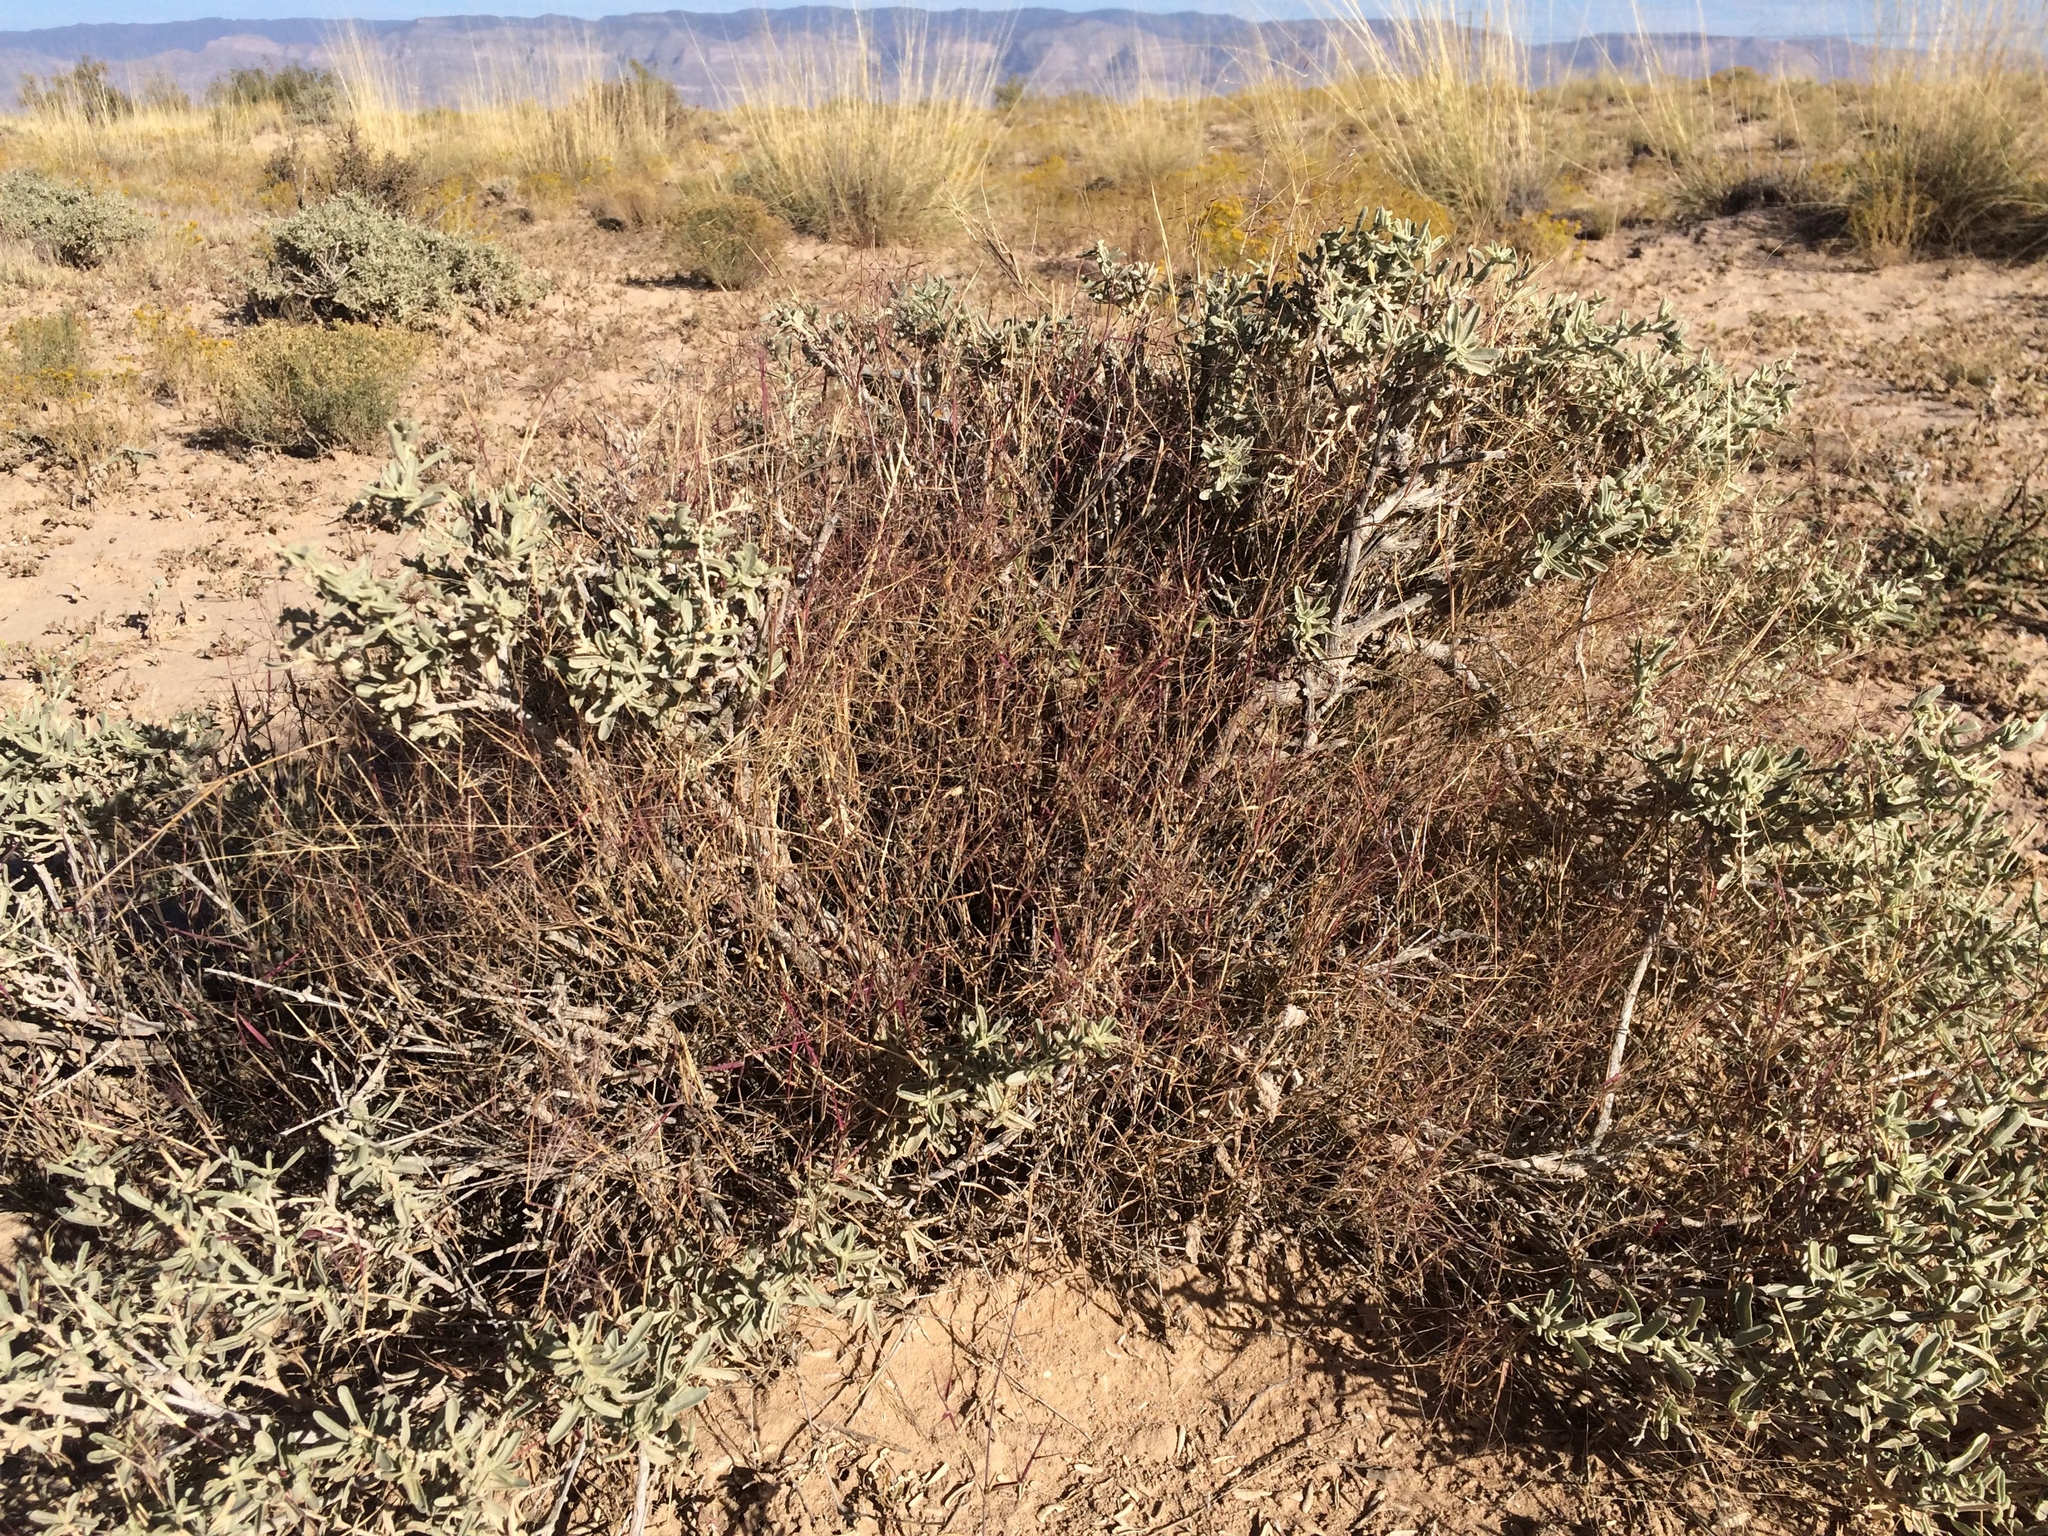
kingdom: Plantae
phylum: Tracheophyta
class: Liliopsida
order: Poales
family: Poaceae
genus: Muhlenbergia
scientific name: Muhlenbergia porteri
